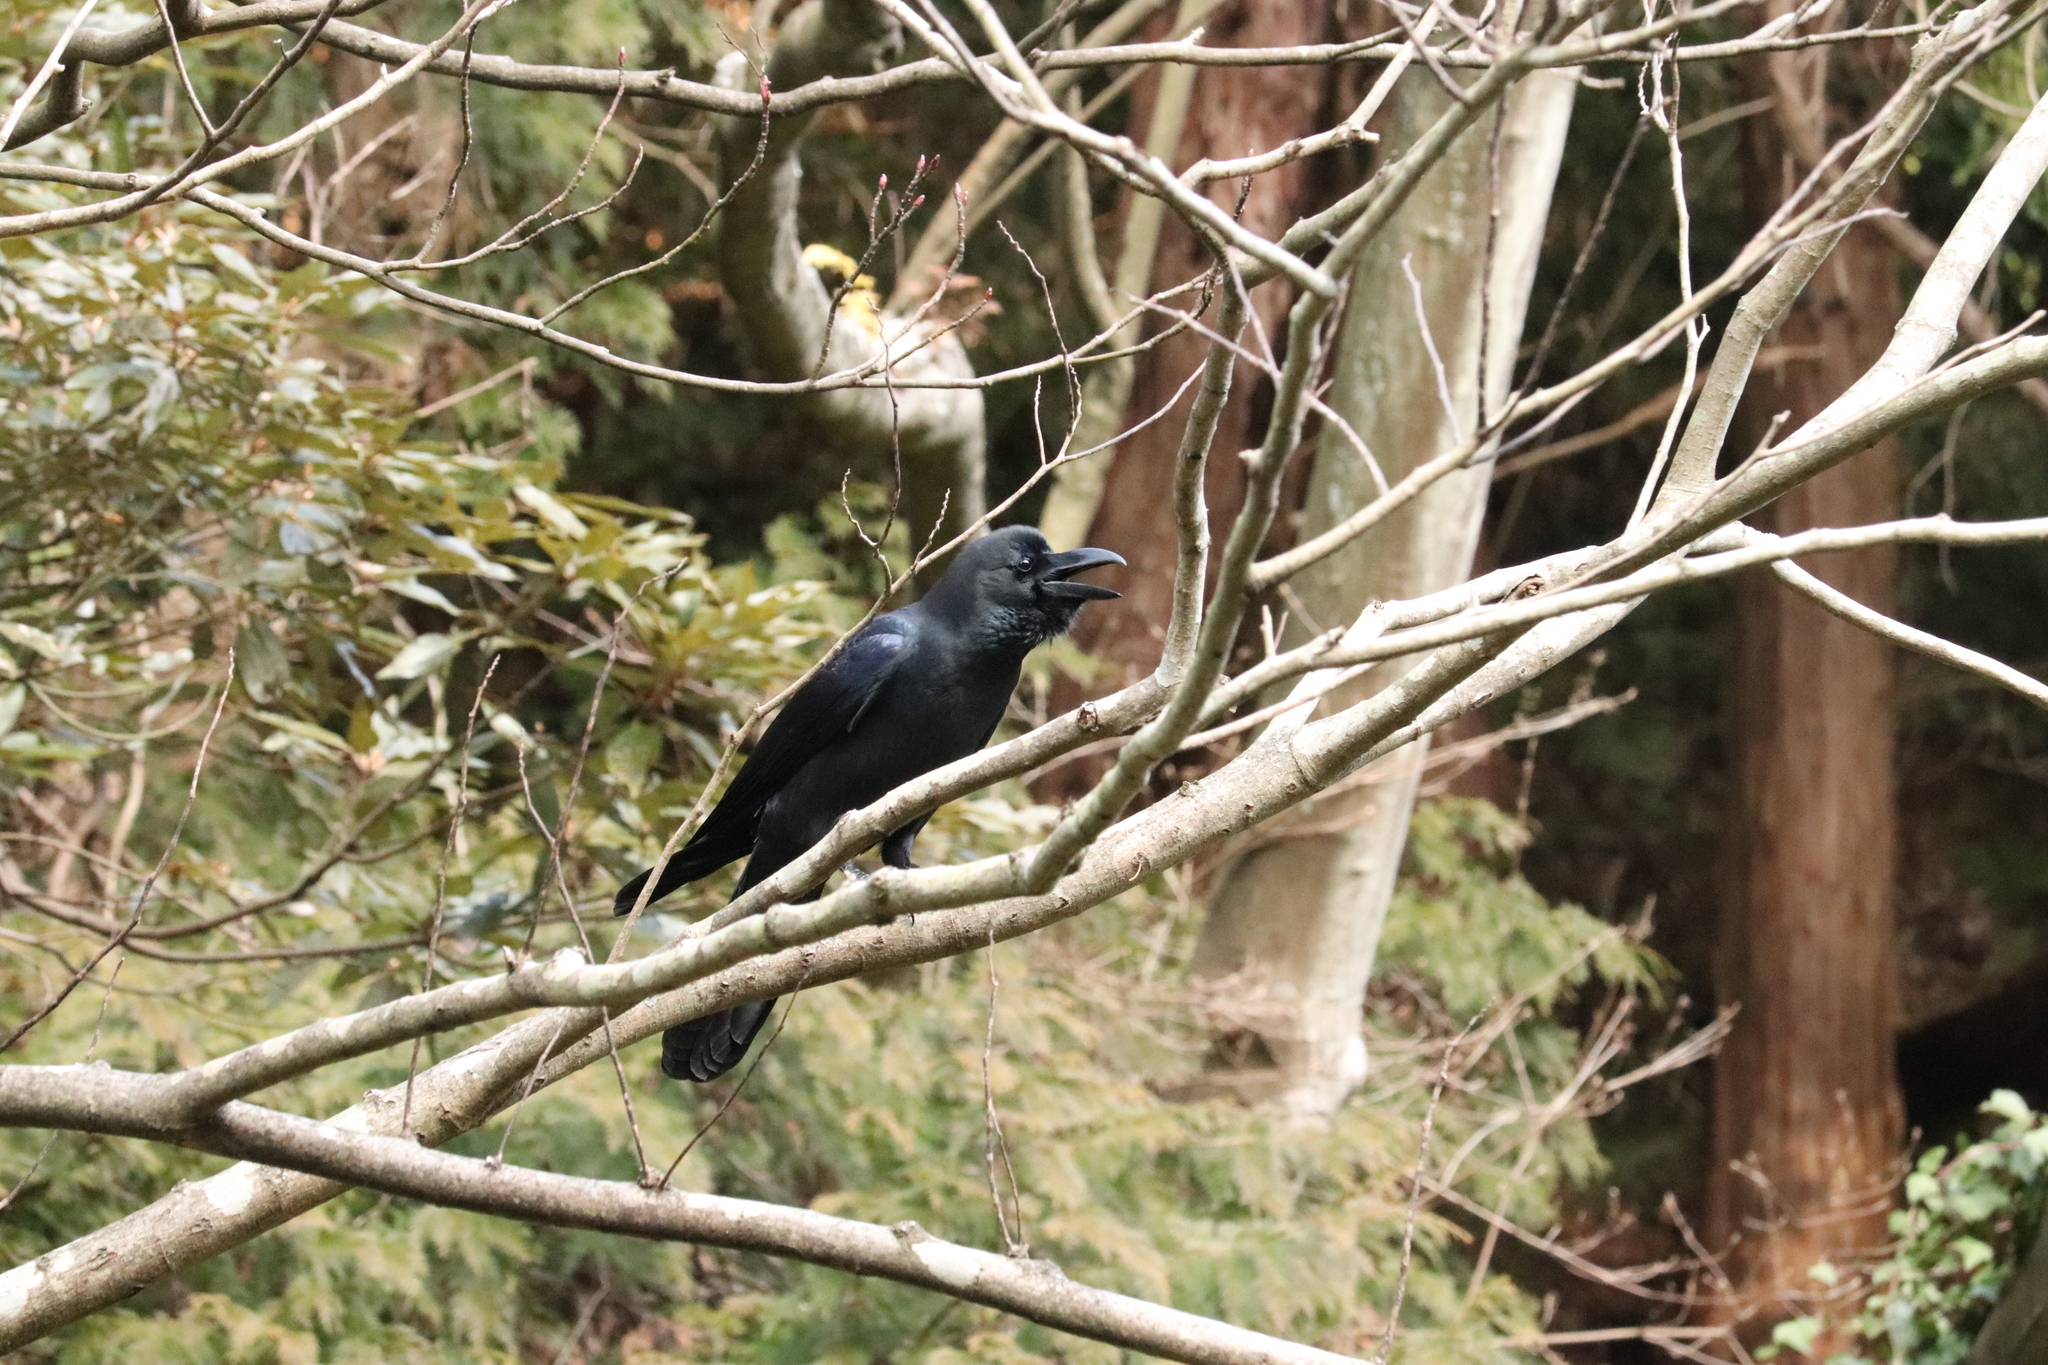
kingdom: Animalia
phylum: Chordata
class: Aves
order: Passeriformes
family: Corvidae
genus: Corvus
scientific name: Corvus macrorhynchos
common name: Large-billed crow
